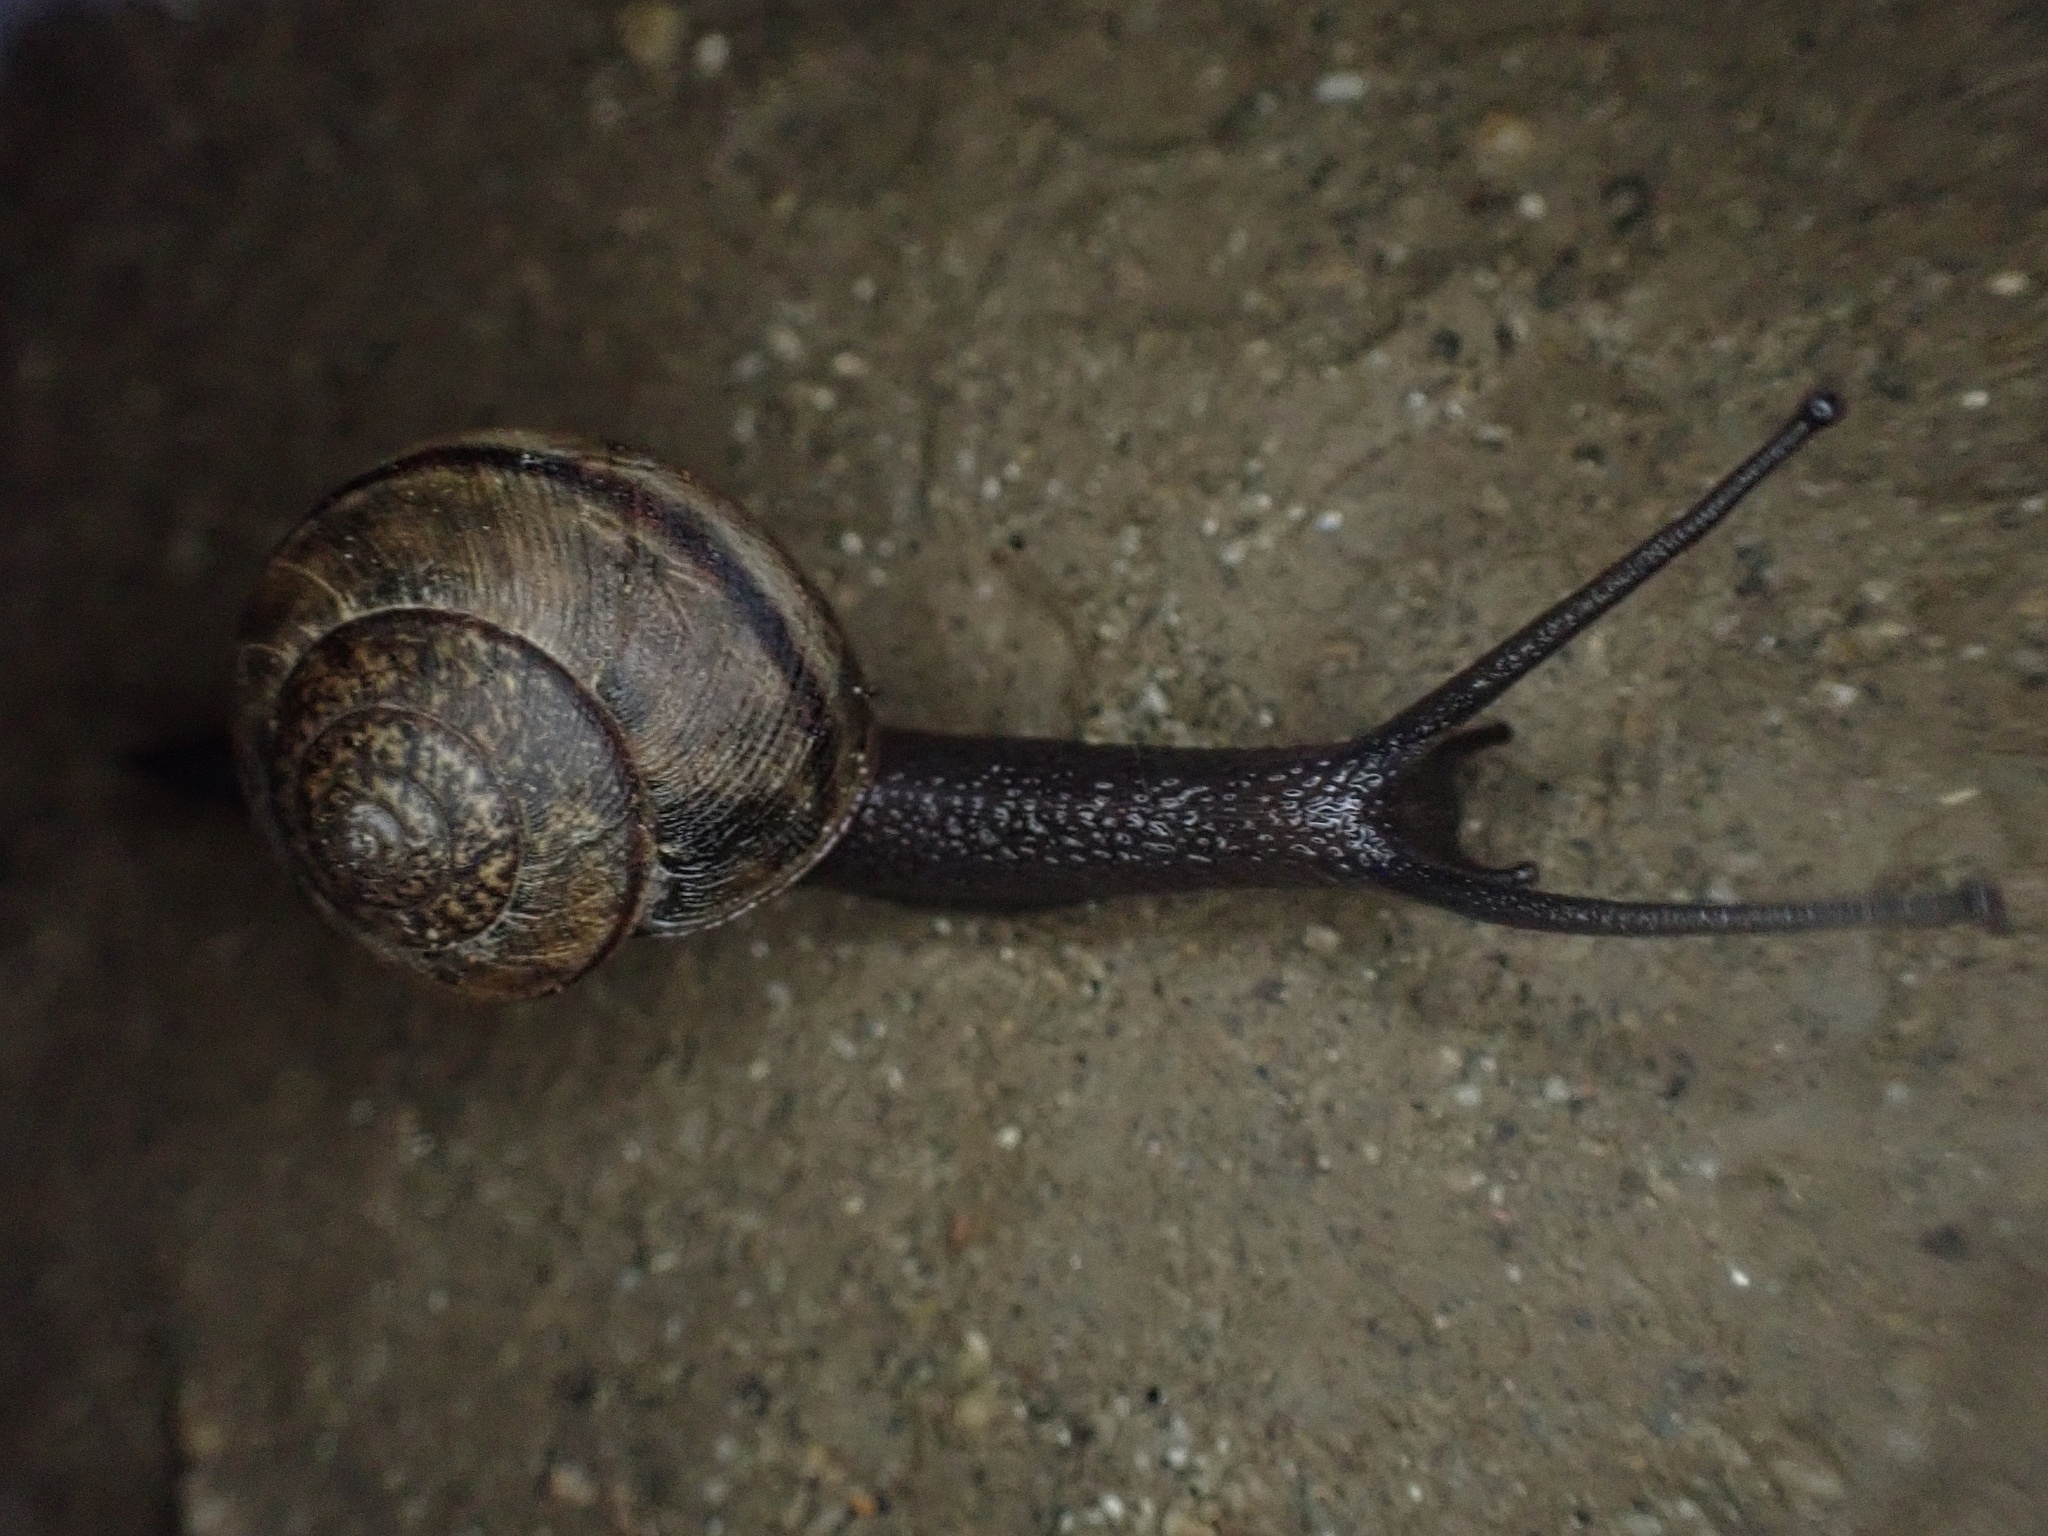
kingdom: Animalia
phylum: Mollusca
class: Gastropoda
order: Stylommatophora
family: Xanthonychidae
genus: Helminthoglypta
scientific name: Helminthoglypta nickliniana
